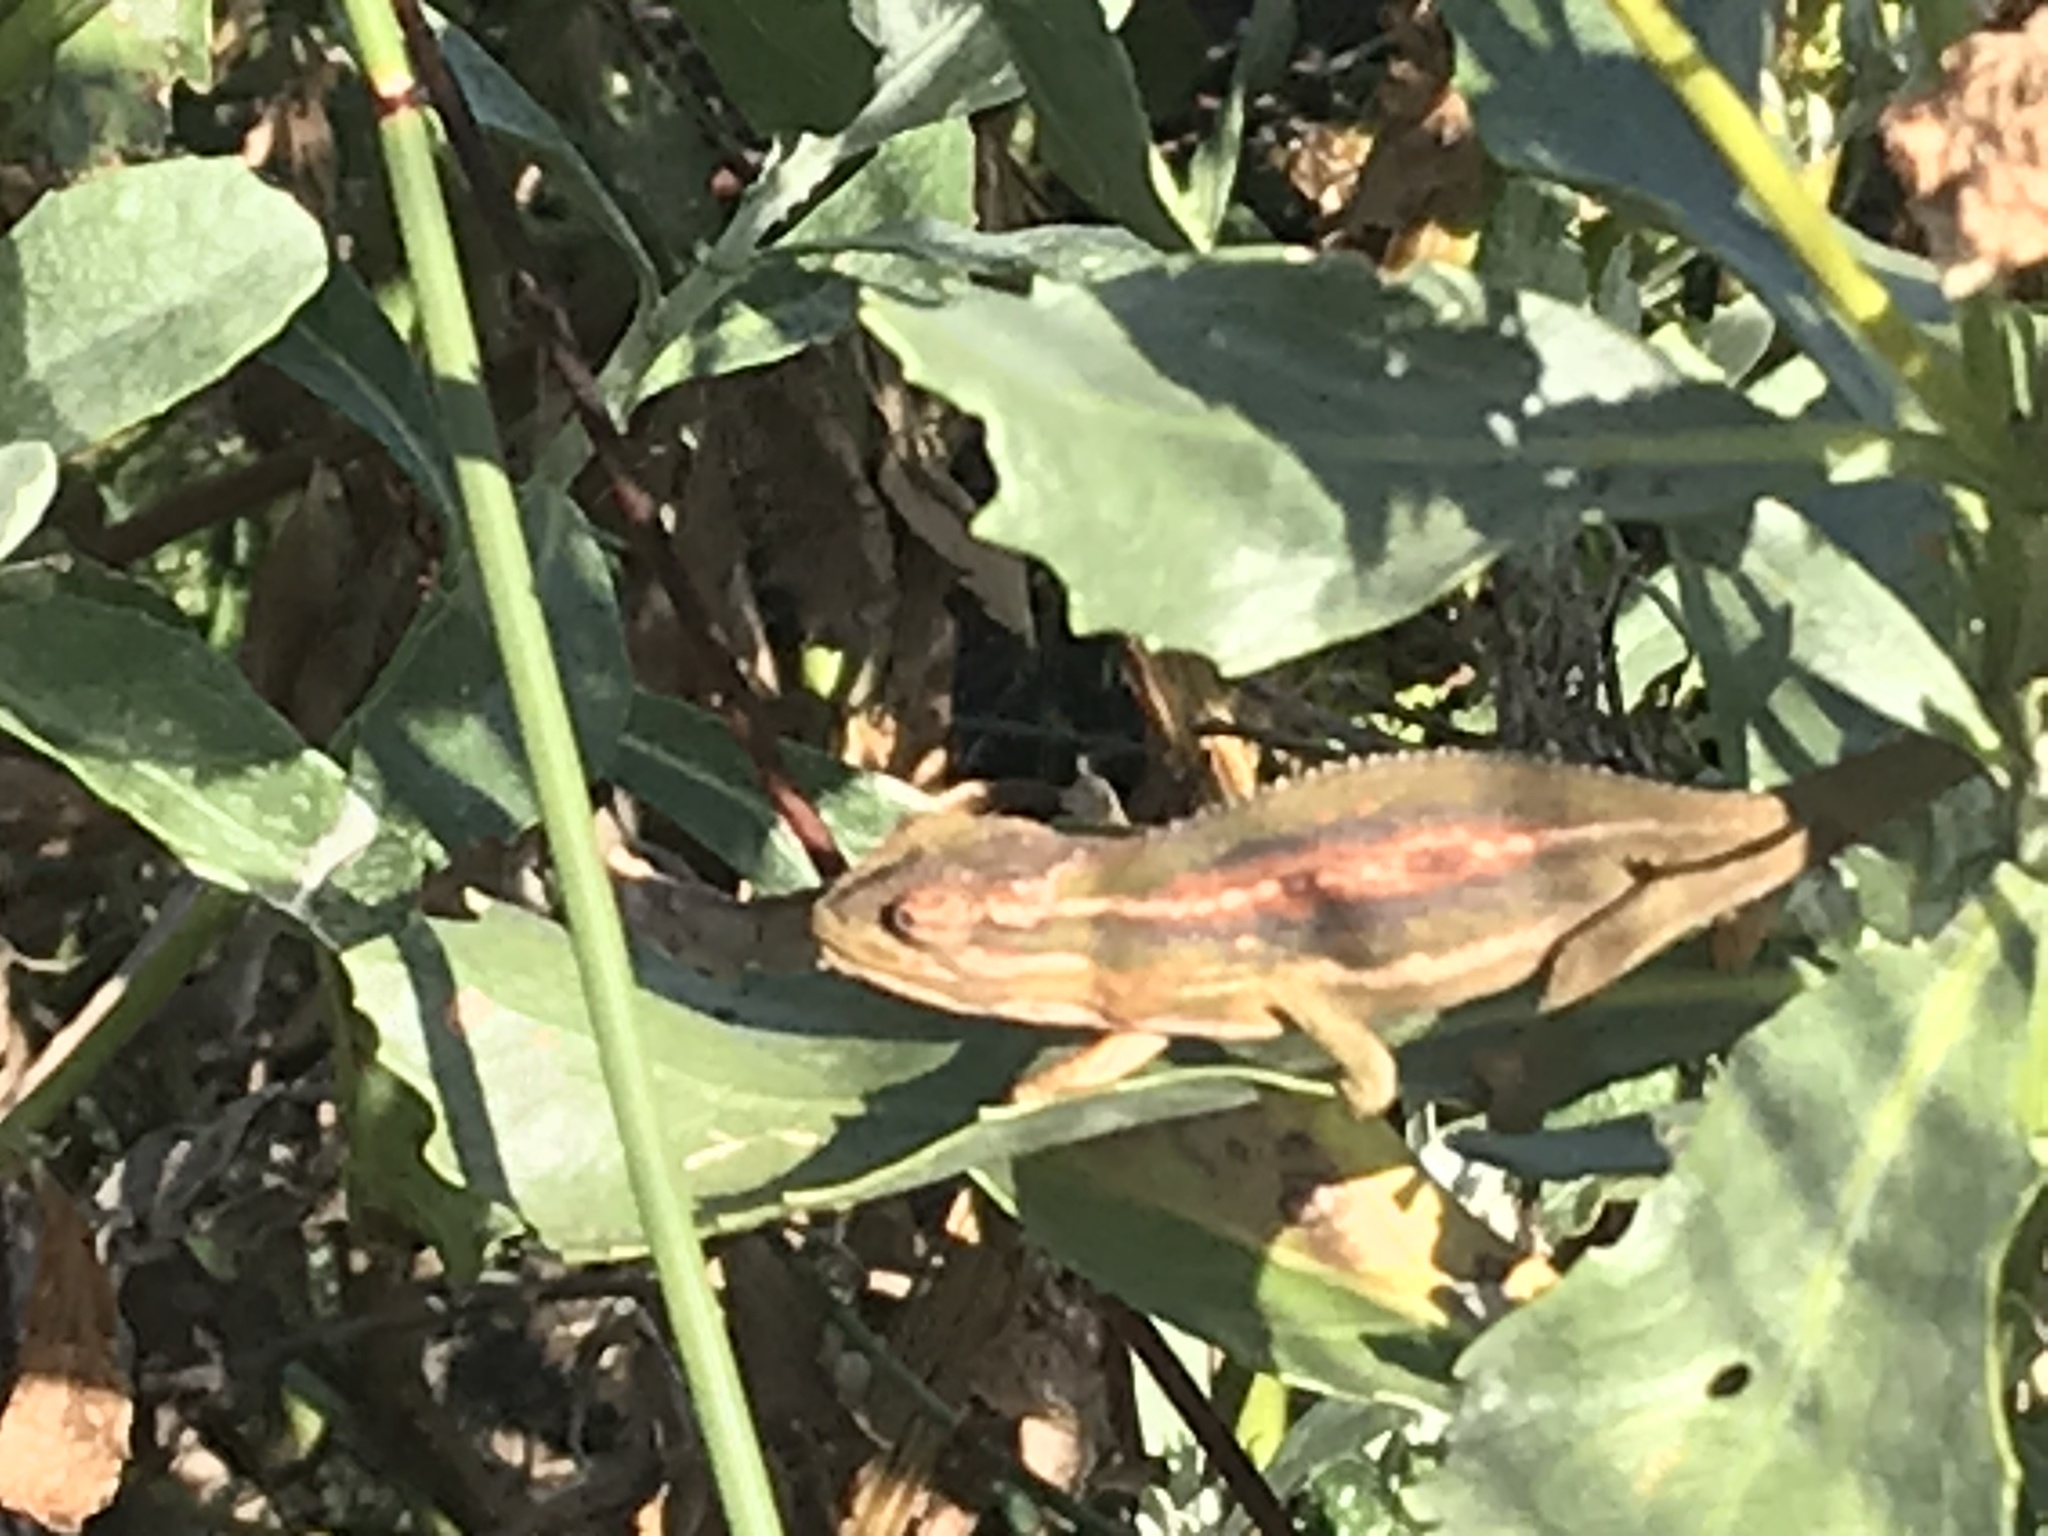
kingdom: Animalia
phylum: Chordata
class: Squamata
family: Chamaeleonidae
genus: Bradypodion
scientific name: Bradypodion pumilum
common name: Cape dwarf chameleon
